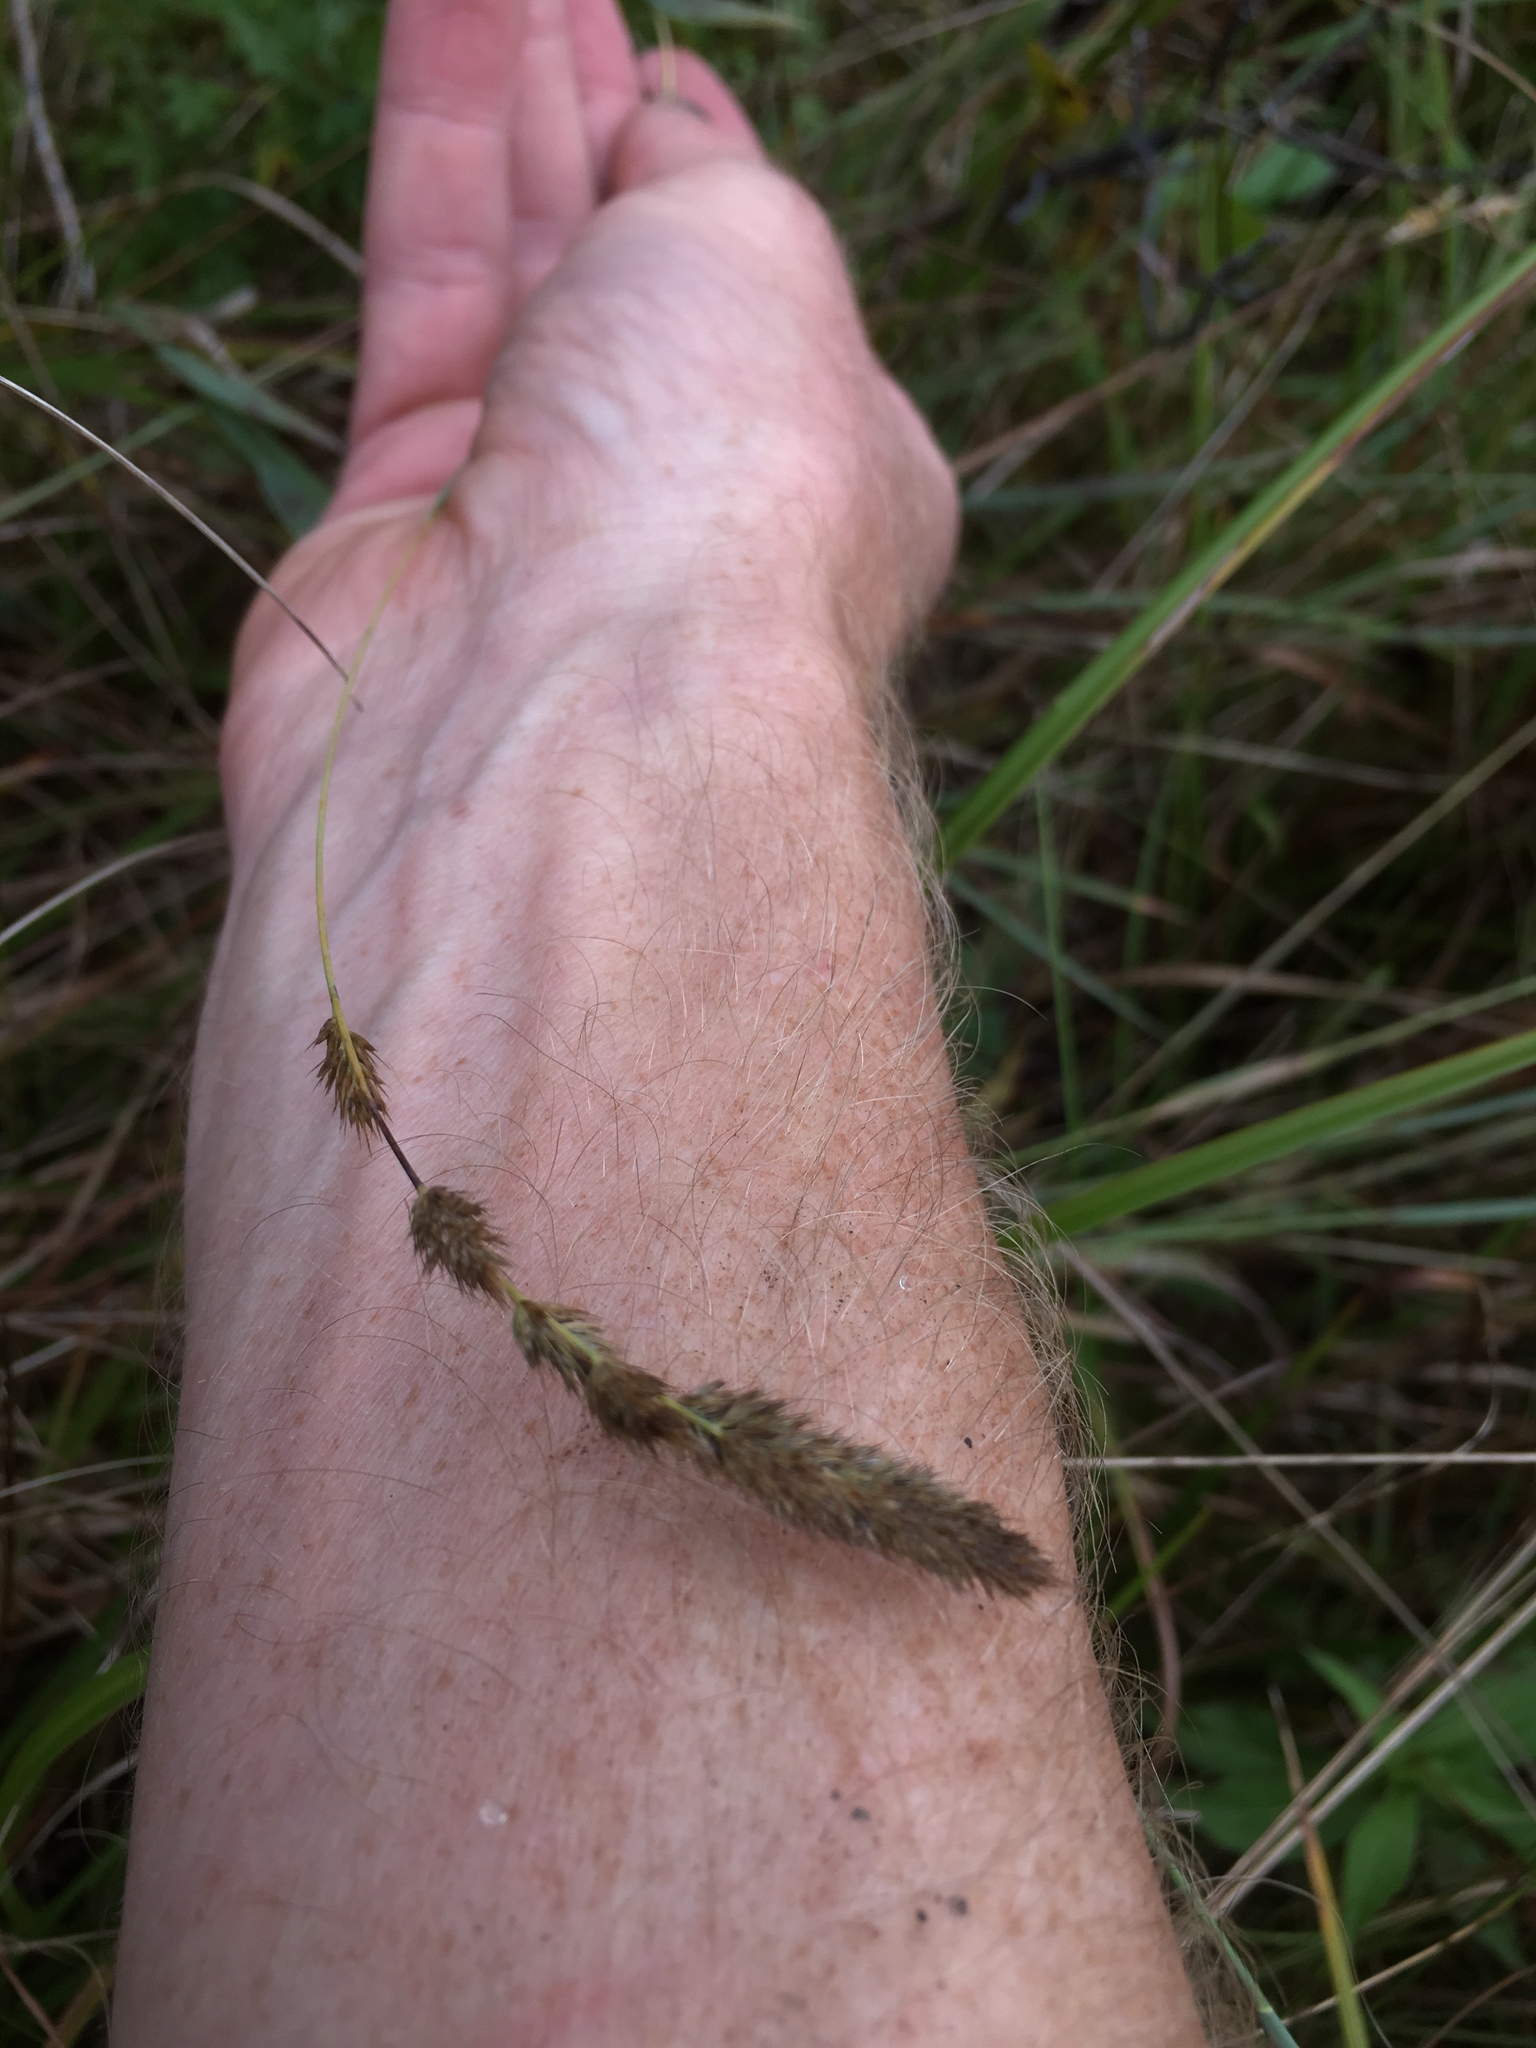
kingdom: Plantae
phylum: Tracheophyta
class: Liliopsida
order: Poales
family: Poaceae
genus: Muhlenbergia
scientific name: Muhlenbergia glomerata
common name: Bog muhly
